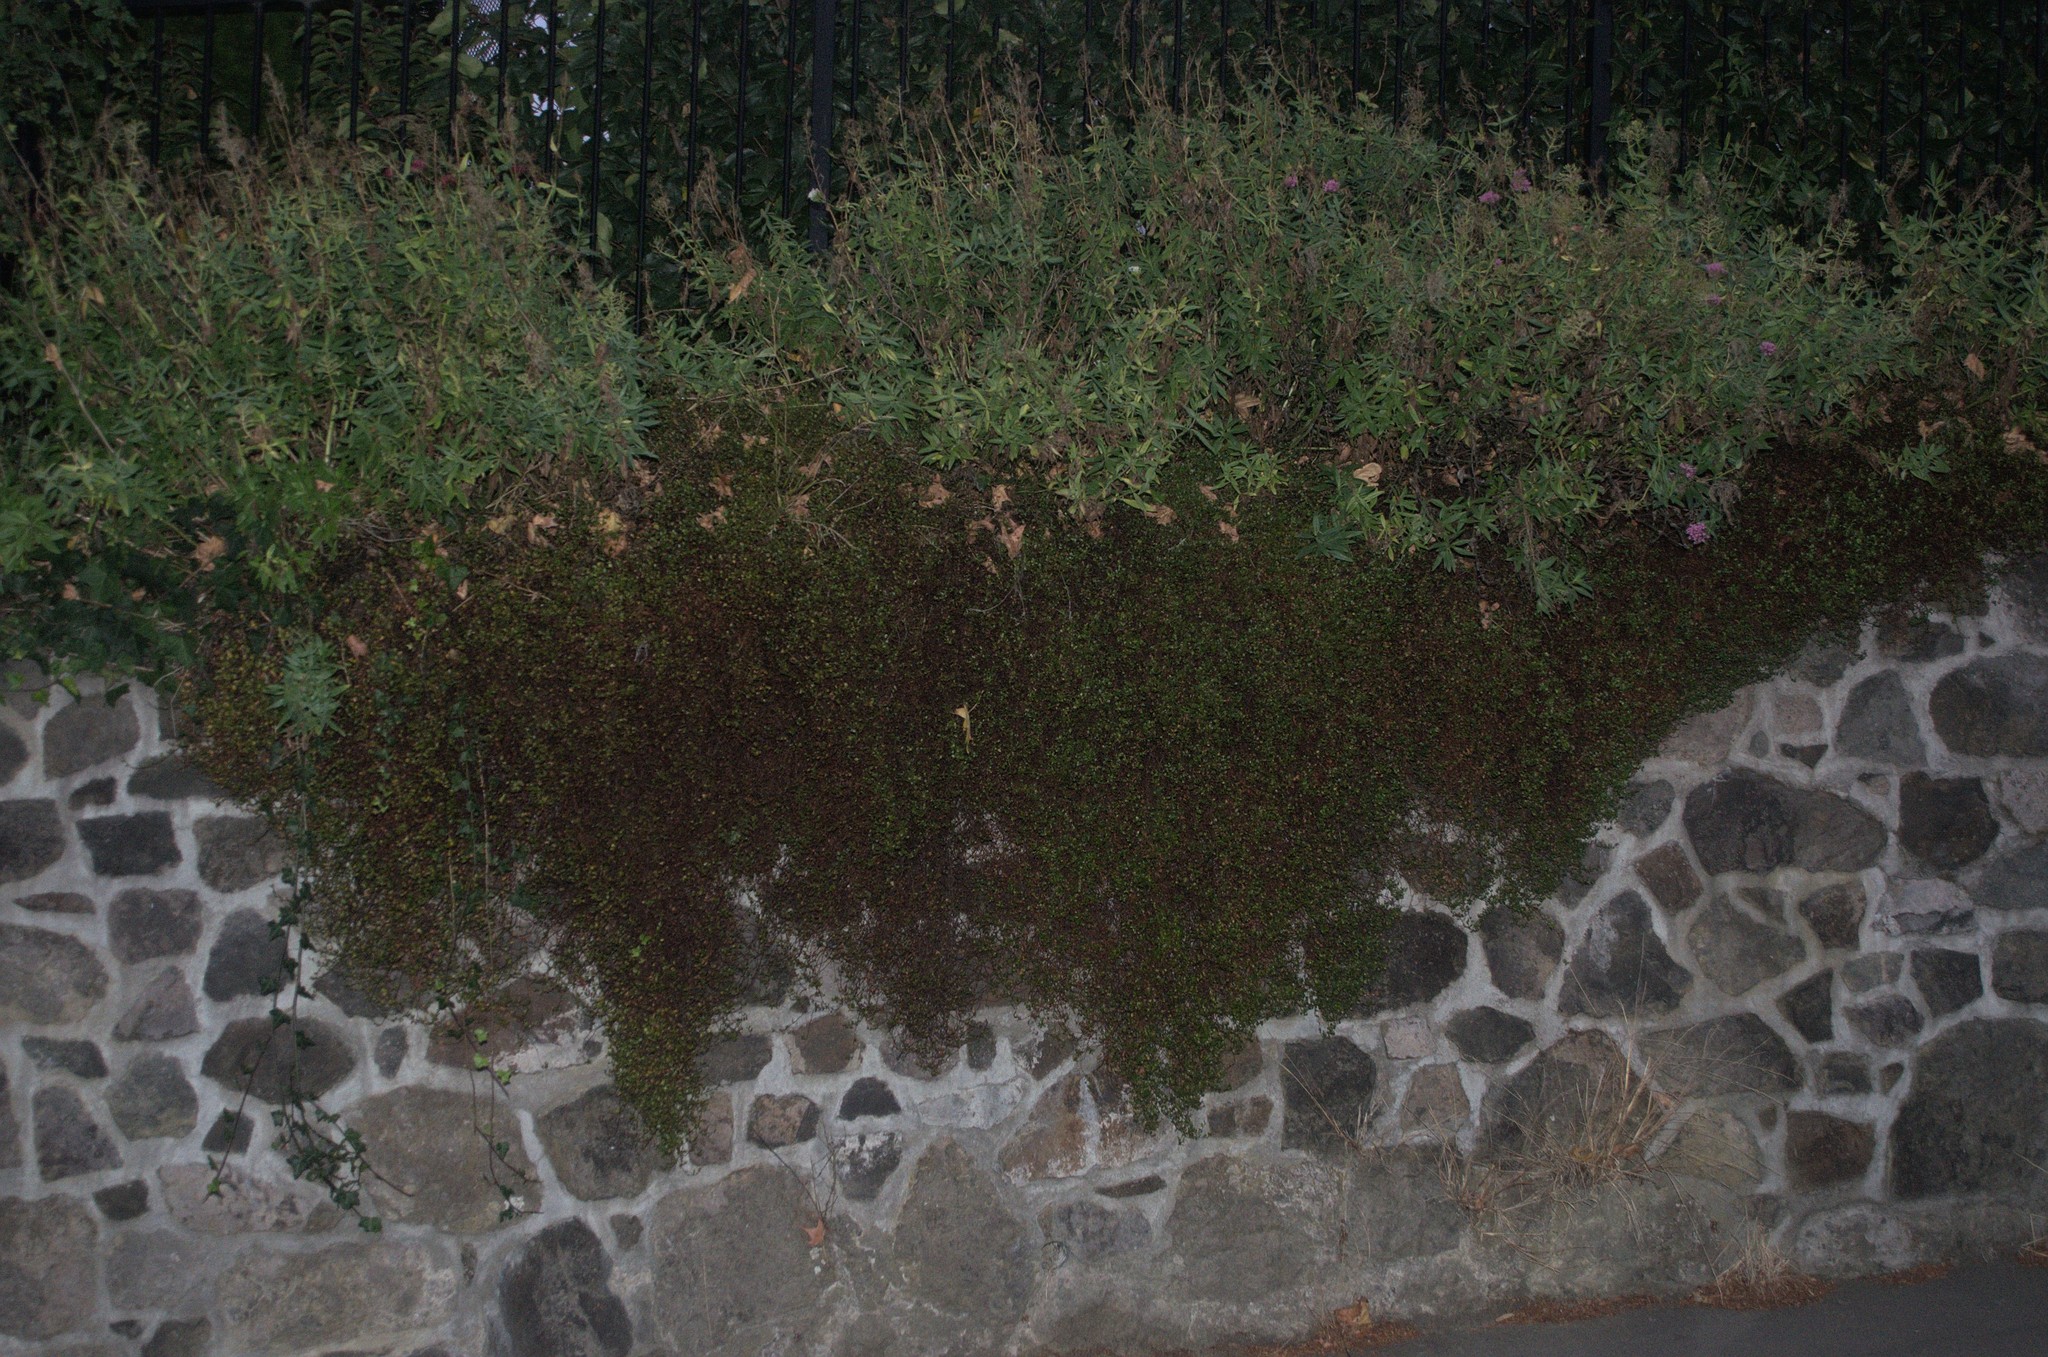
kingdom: Plantae
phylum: Tracheophyta
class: Magnoliopsida
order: Dipsacales
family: Caprifoliaceae
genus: Centranthus
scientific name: Centranthus ruber
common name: Red valerian
